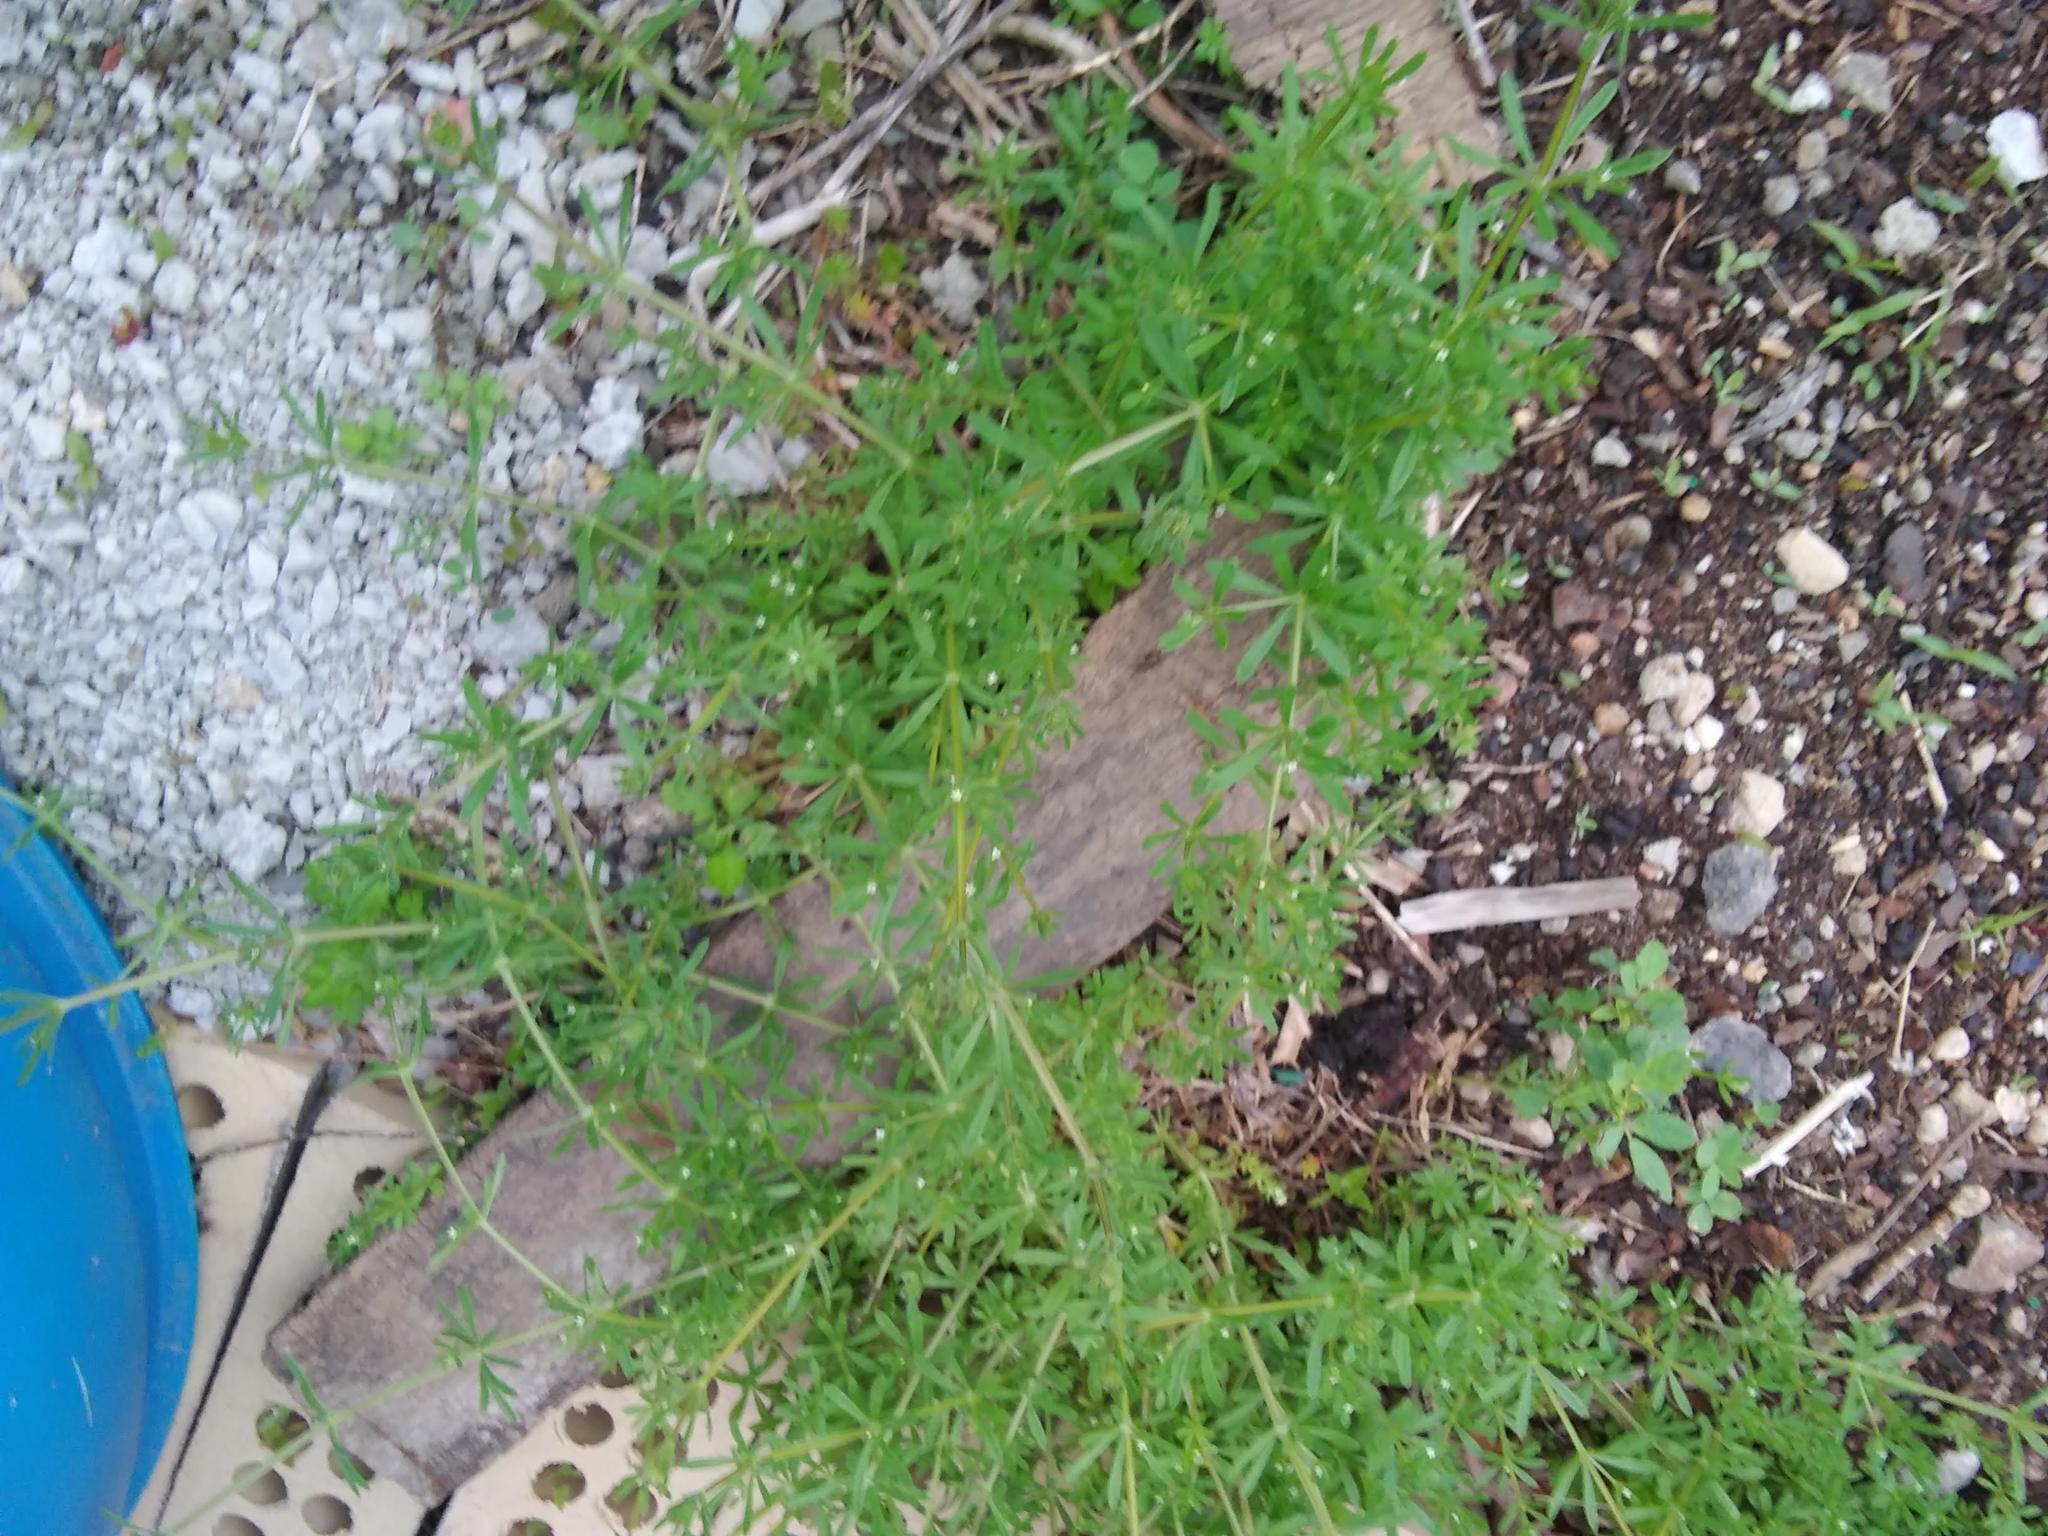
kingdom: Plantae
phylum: Tracheophyta
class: Magnoliopsida
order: Gentianales
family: Rubiaceae
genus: Galium
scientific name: Galium aparine
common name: Cleavers
